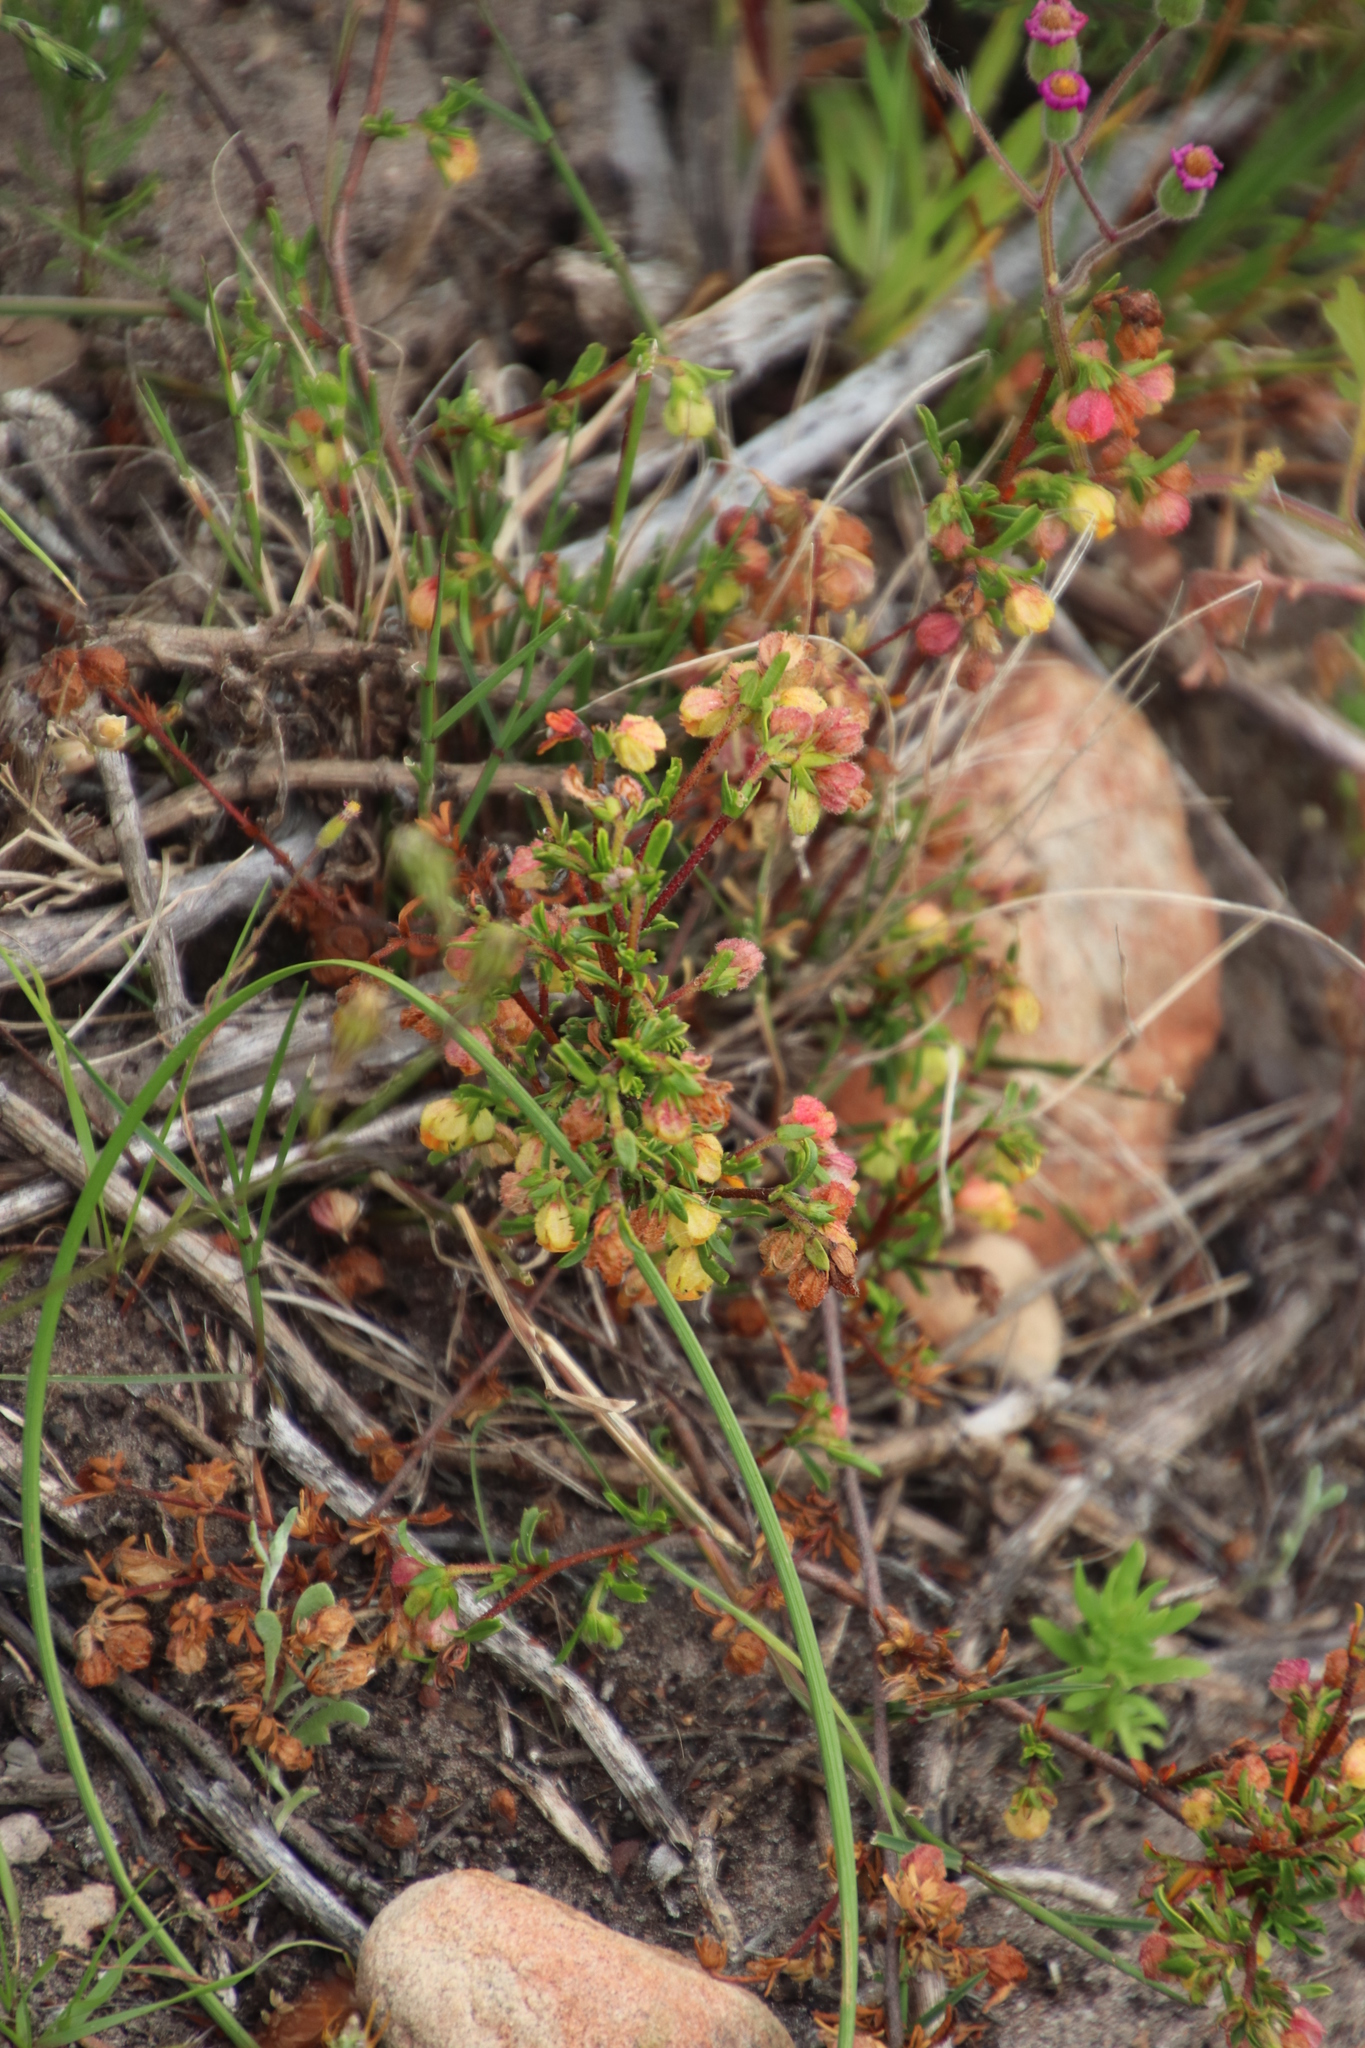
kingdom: Plantae
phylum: Tracheophyta
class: Magnoliopsida
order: Malvales
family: Malvaceae
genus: Hermannia
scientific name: Hermannia rudis
